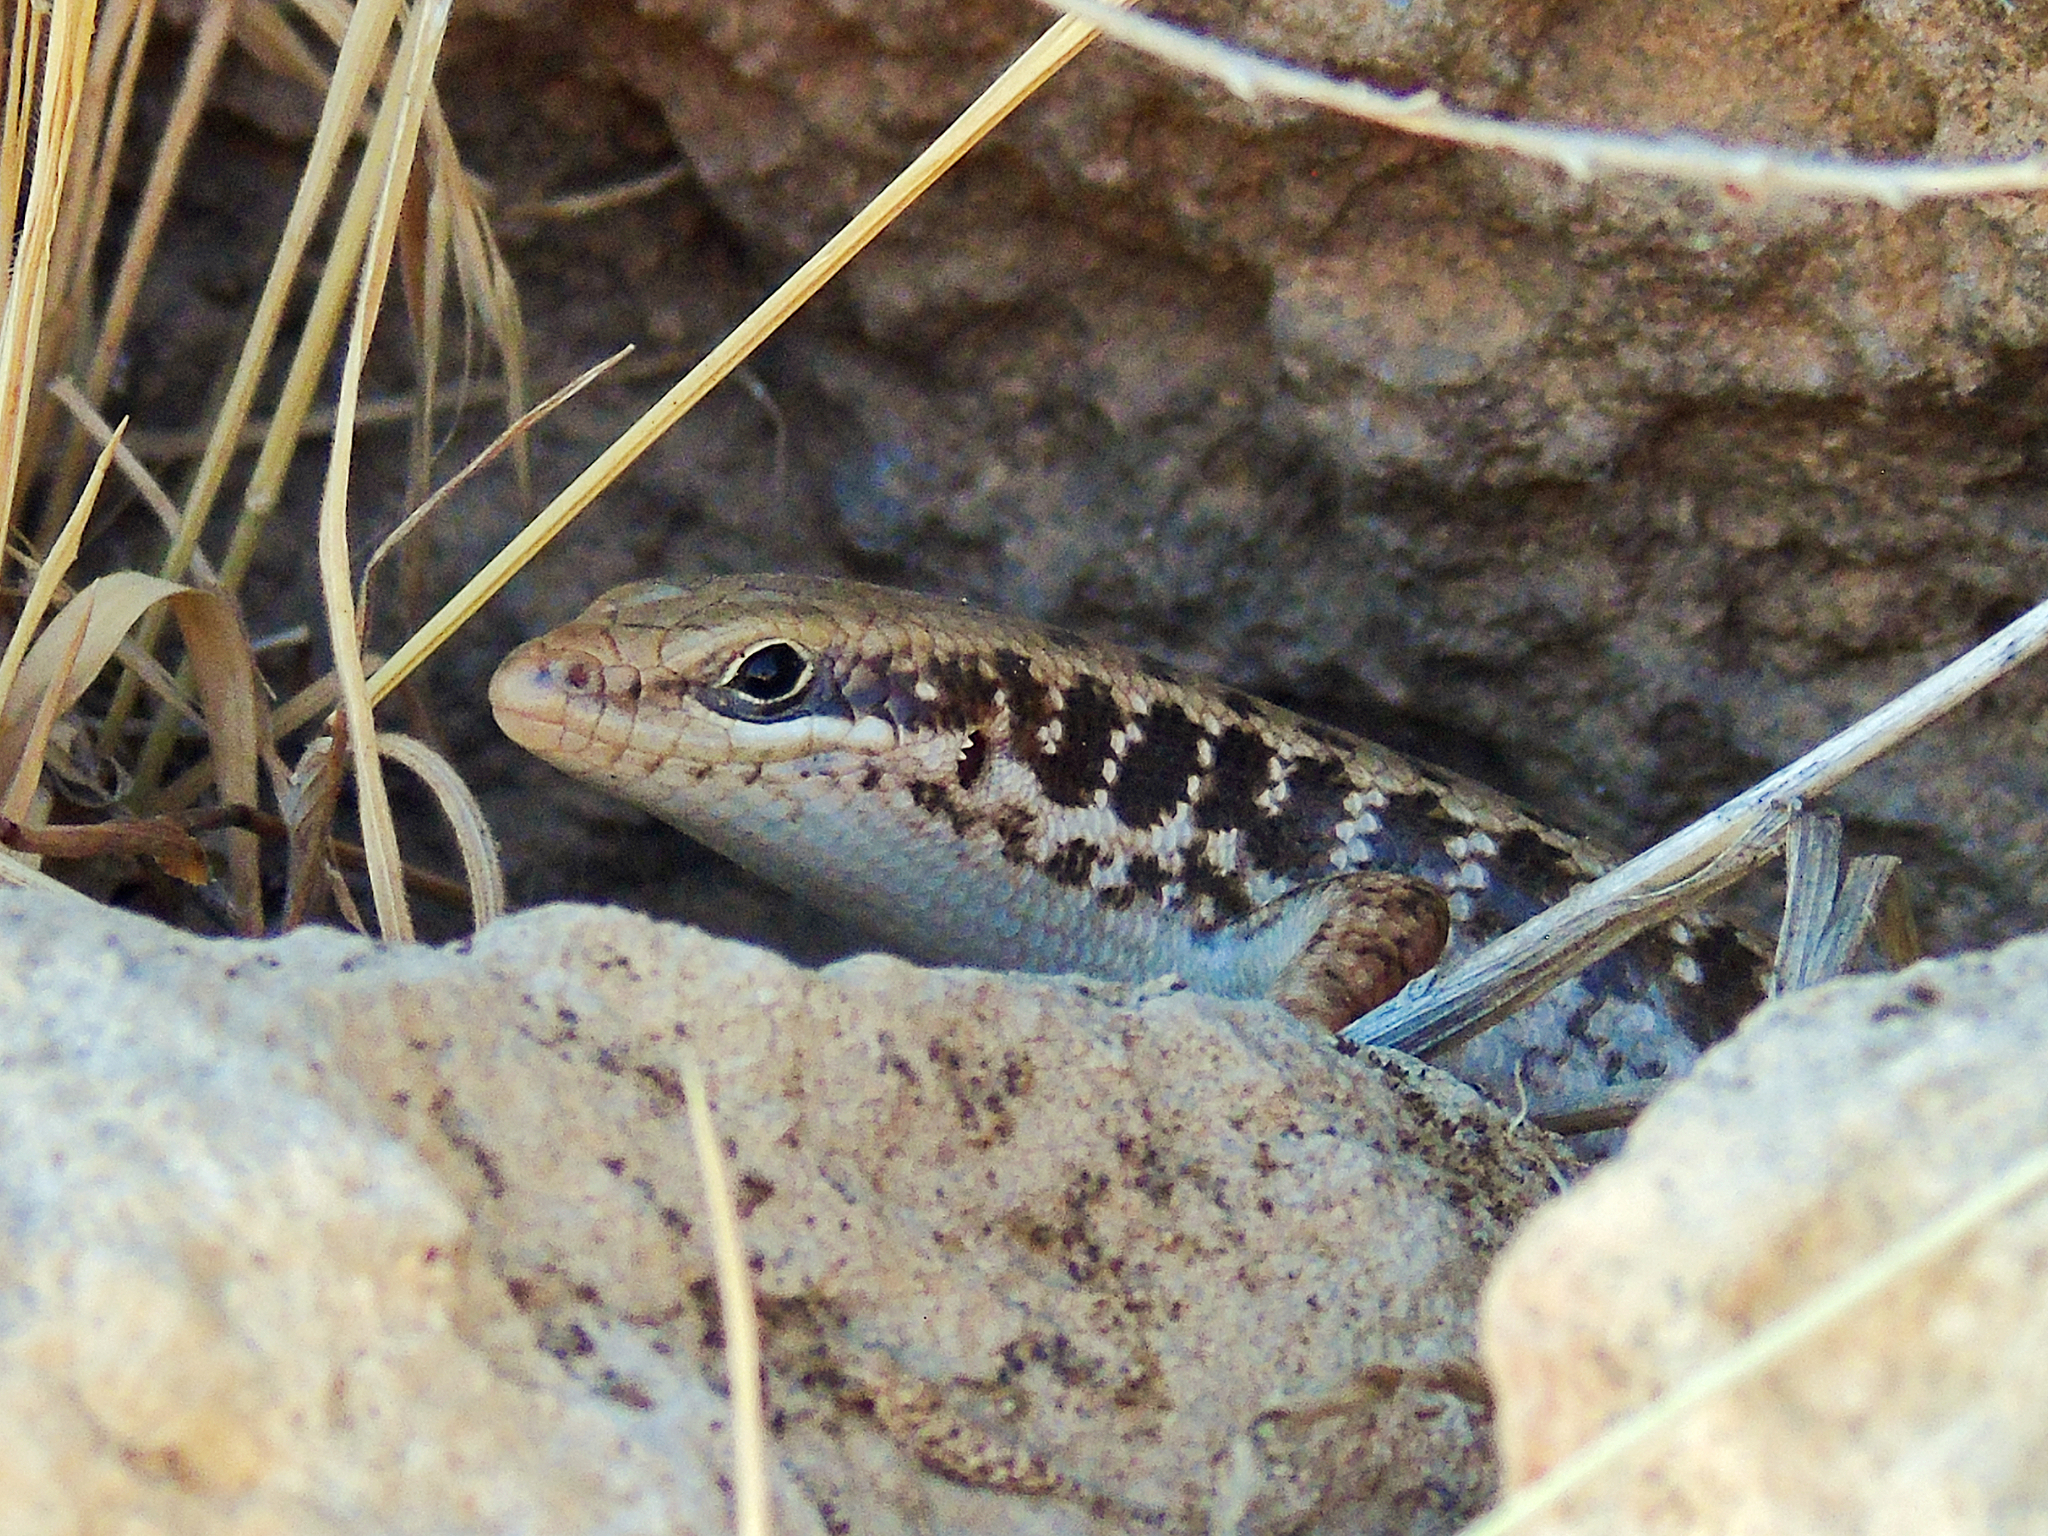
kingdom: Animalia
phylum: Chordata
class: Squamata
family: Scincidae
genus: Heremites
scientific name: Heremites auratus
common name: Golden grass mabuya
